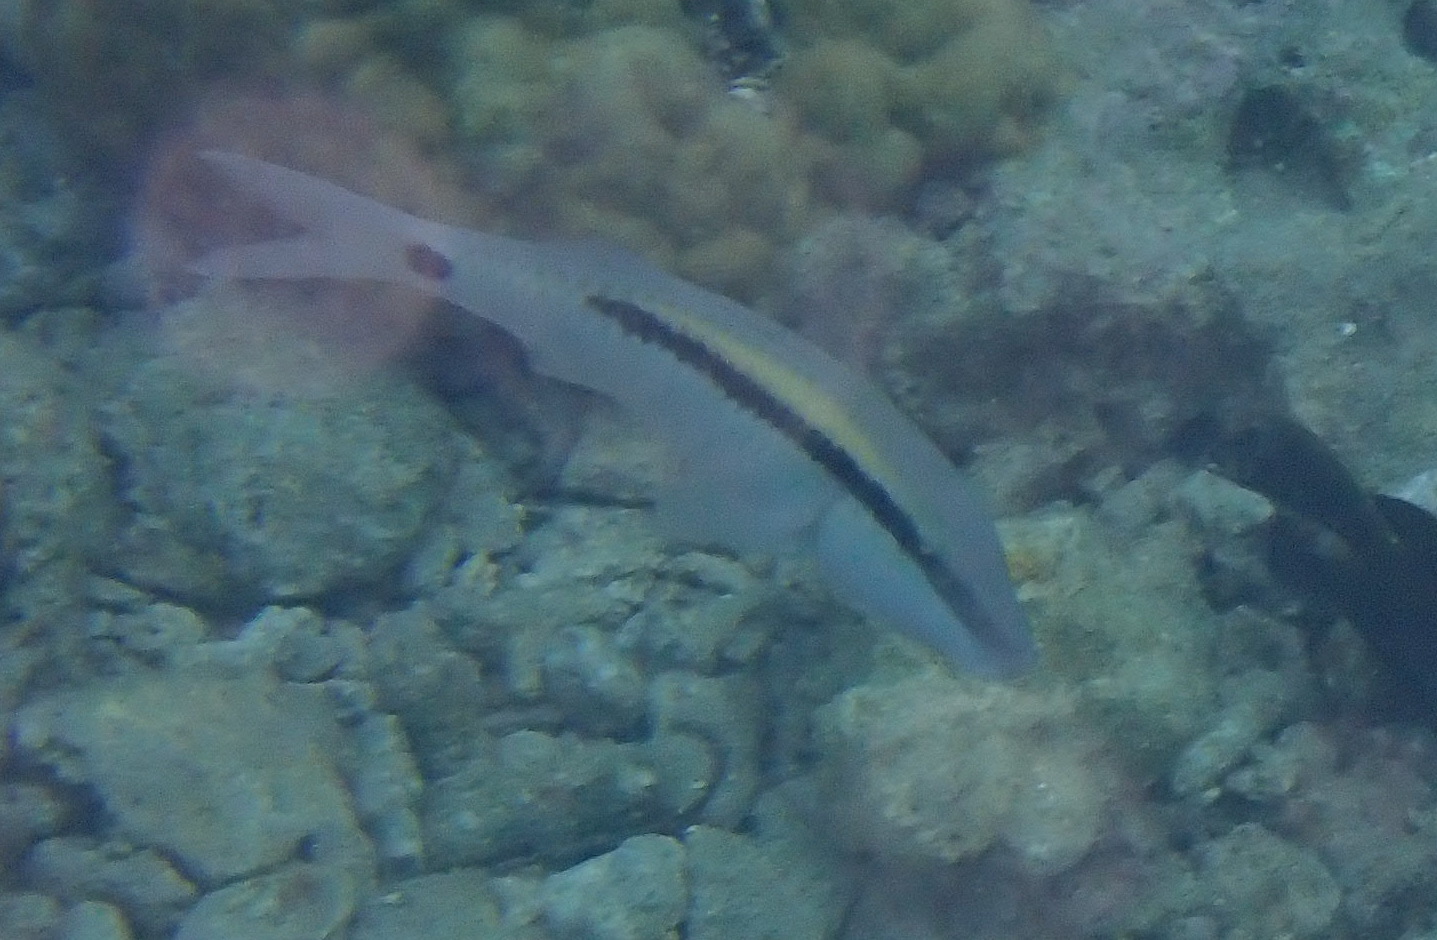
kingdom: Animalia
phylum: Chordata
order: Perciformes
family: Mullidae
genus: Parupeneus
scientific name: Parupeneus barberinus
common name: Dash-and-dot goatfish
